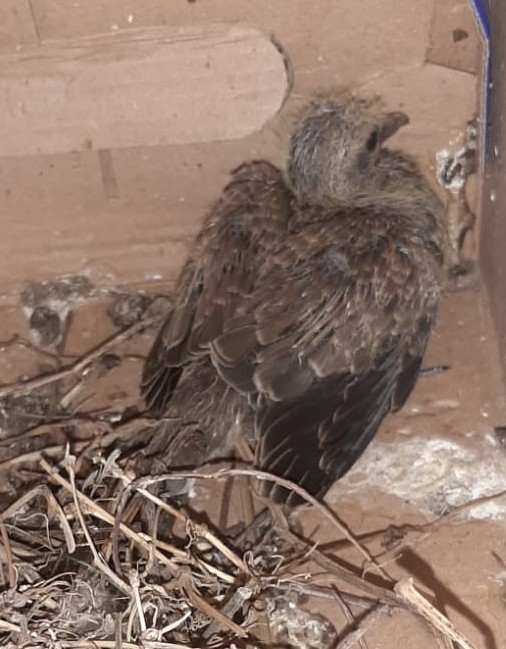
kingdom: Animalia
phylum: Chordata
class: Aves
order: Columbiformes
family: Columbidae
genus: Zenaida
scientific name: Zenaida auriculata
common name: Eared dove
